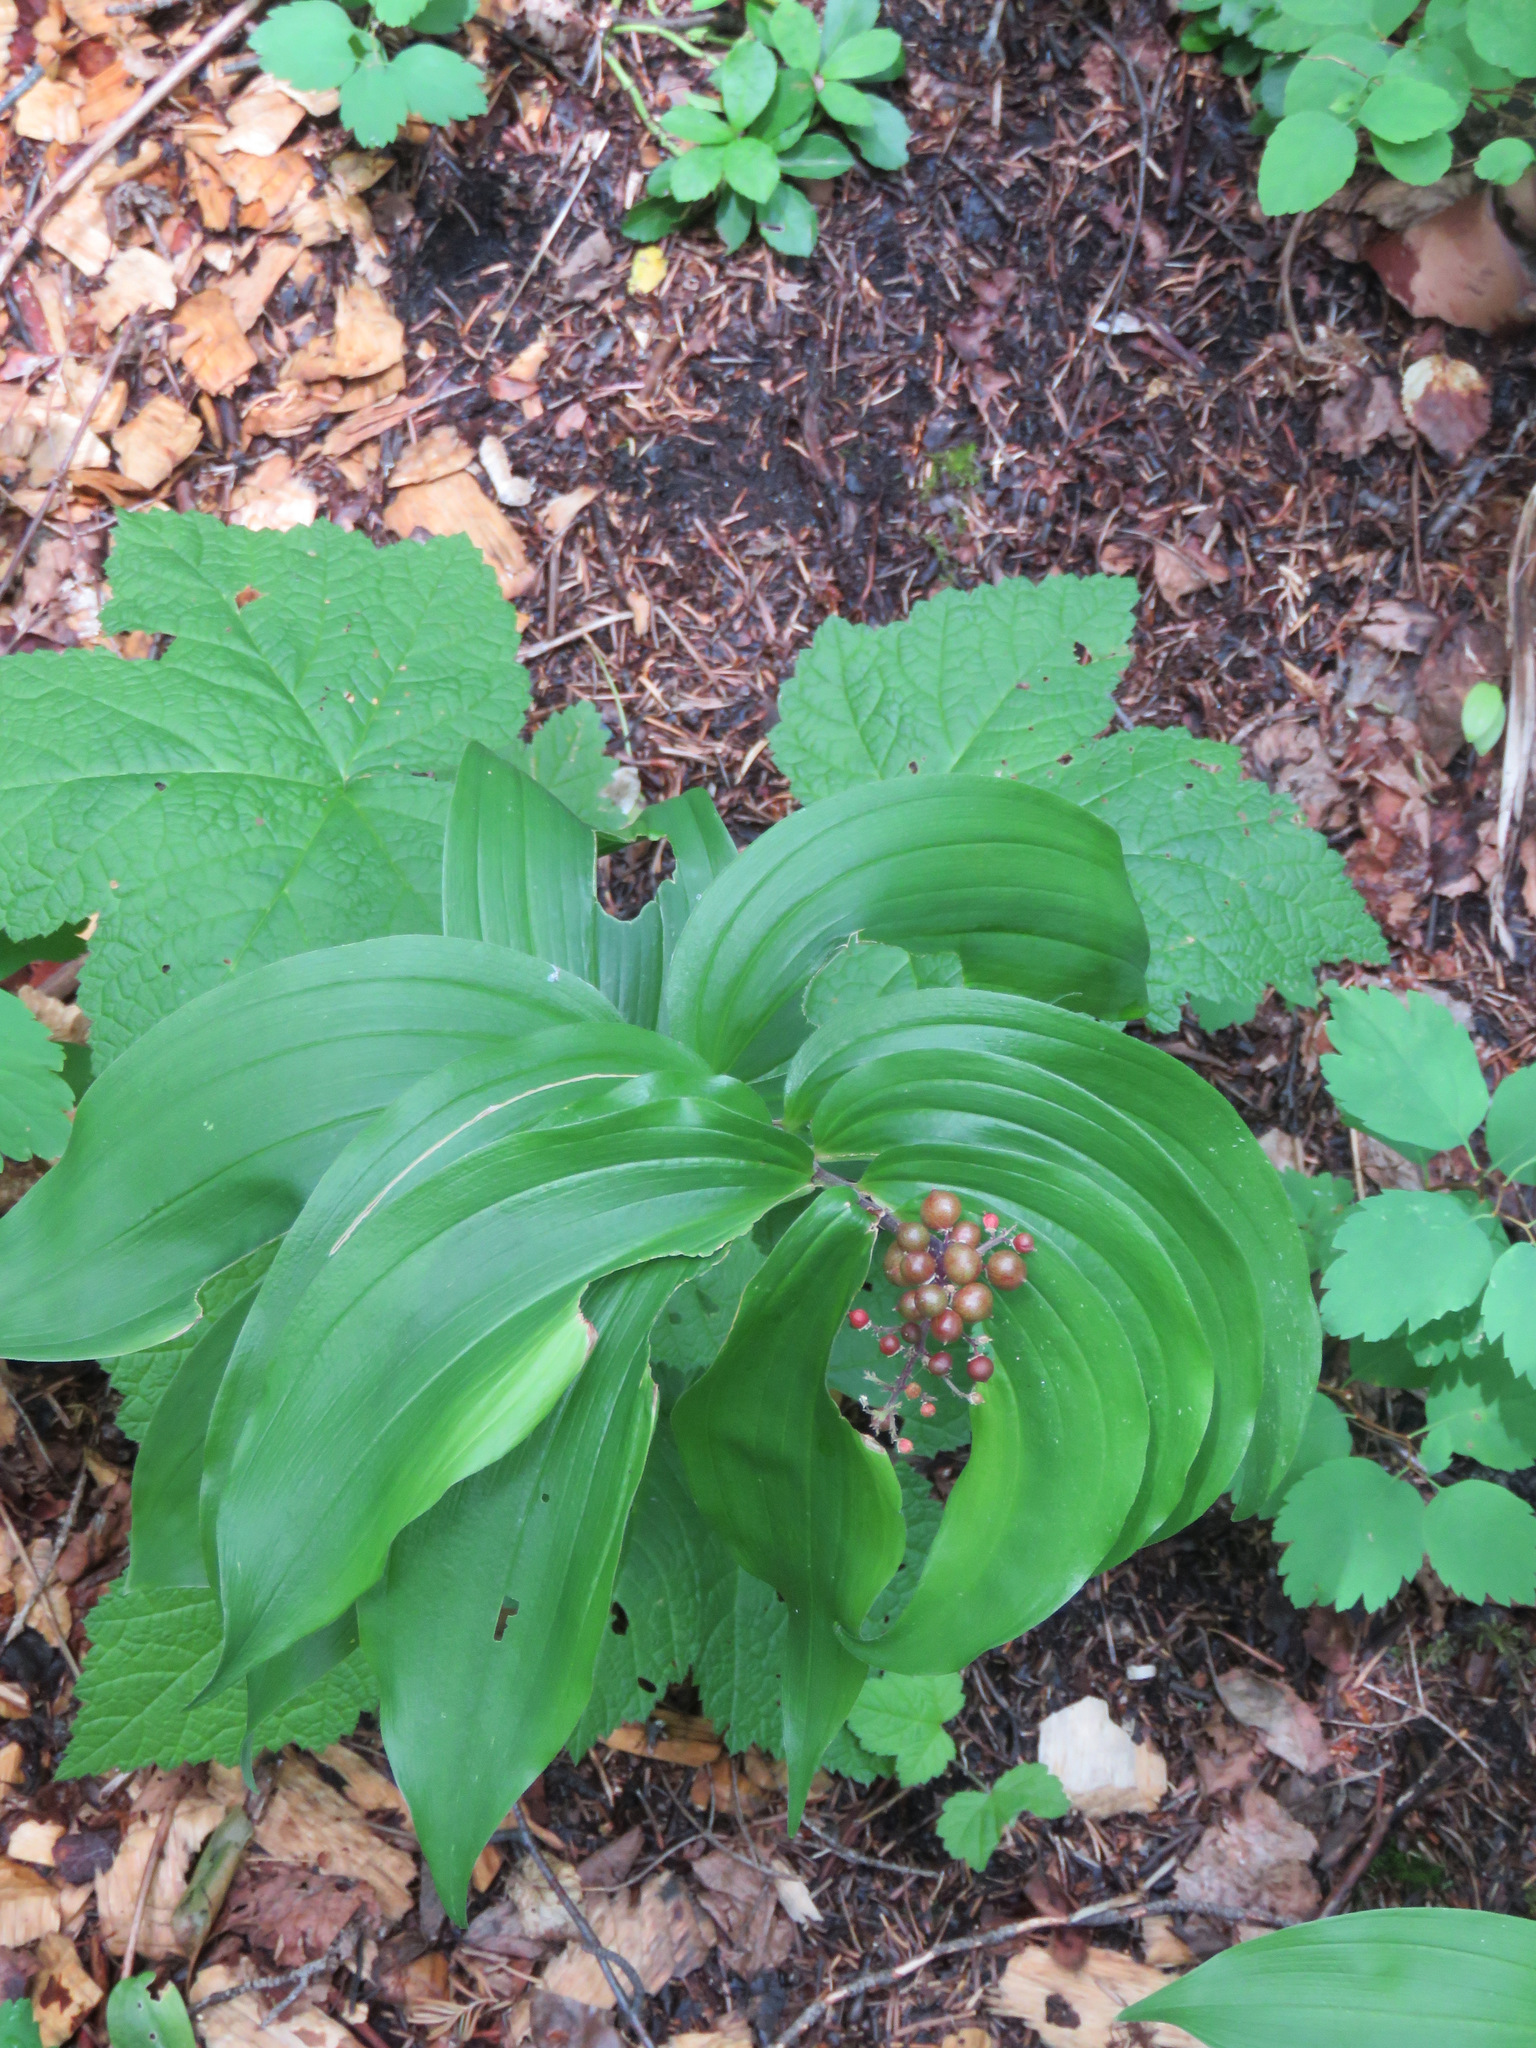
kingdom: Plantae
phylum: Tracheophyta
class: Liliopsida
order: Asparagales
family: Asparagaceae
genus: Maianthemum
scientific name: Maianthemum racemosum
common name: False spikenard
